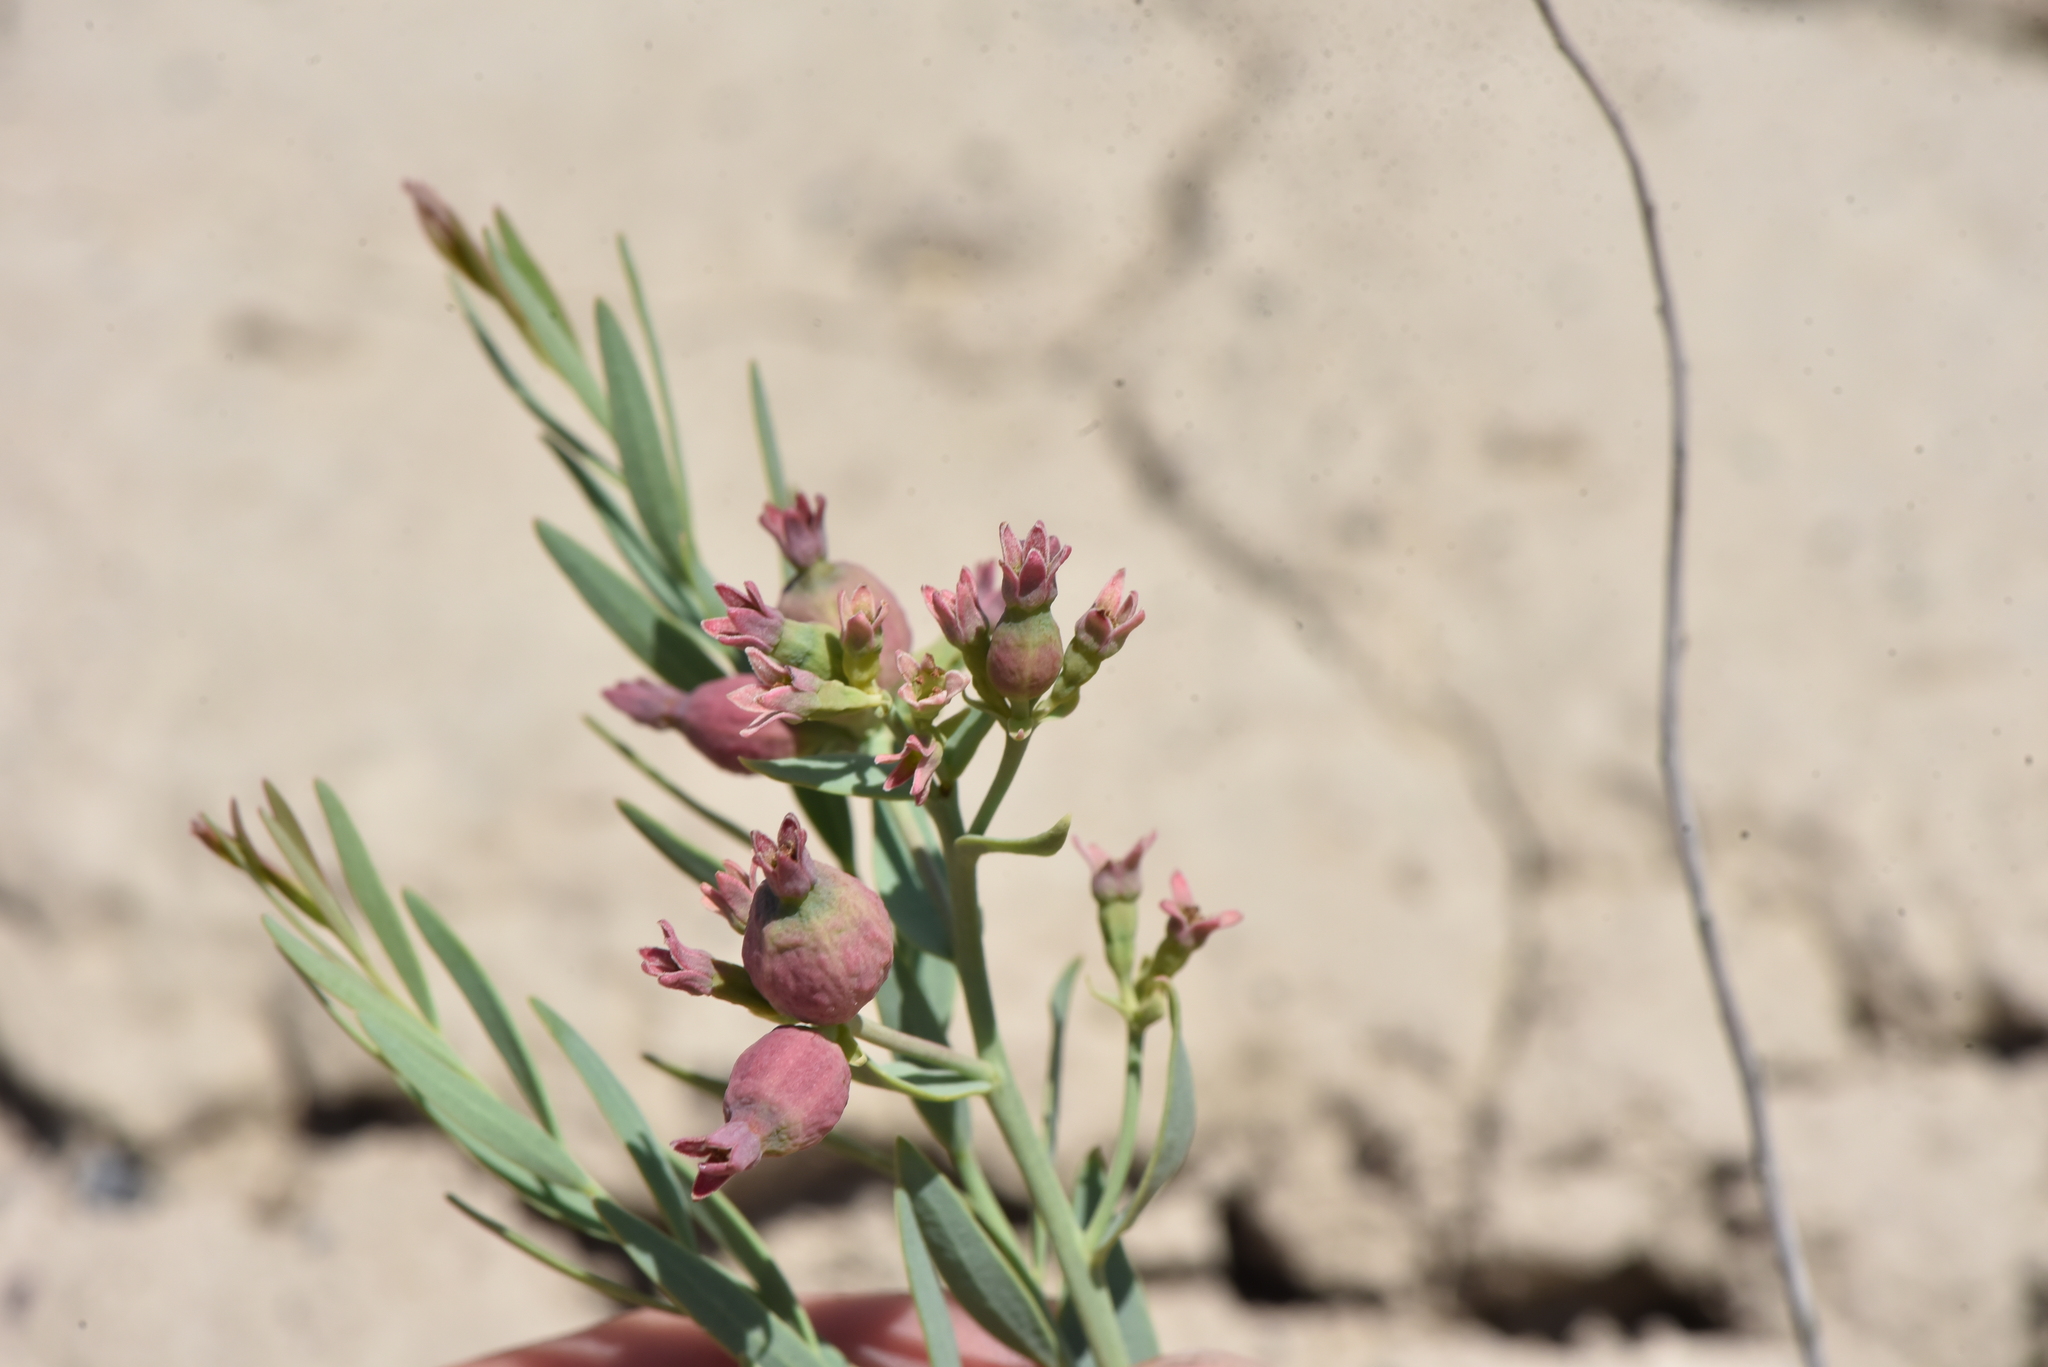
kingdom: Plantae
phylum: Tracheophyta
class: Magnoliopsida
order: Santalales
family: Comandraceae
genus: Comandra
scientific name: Comandra umbellata
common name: Bastard toadflax
